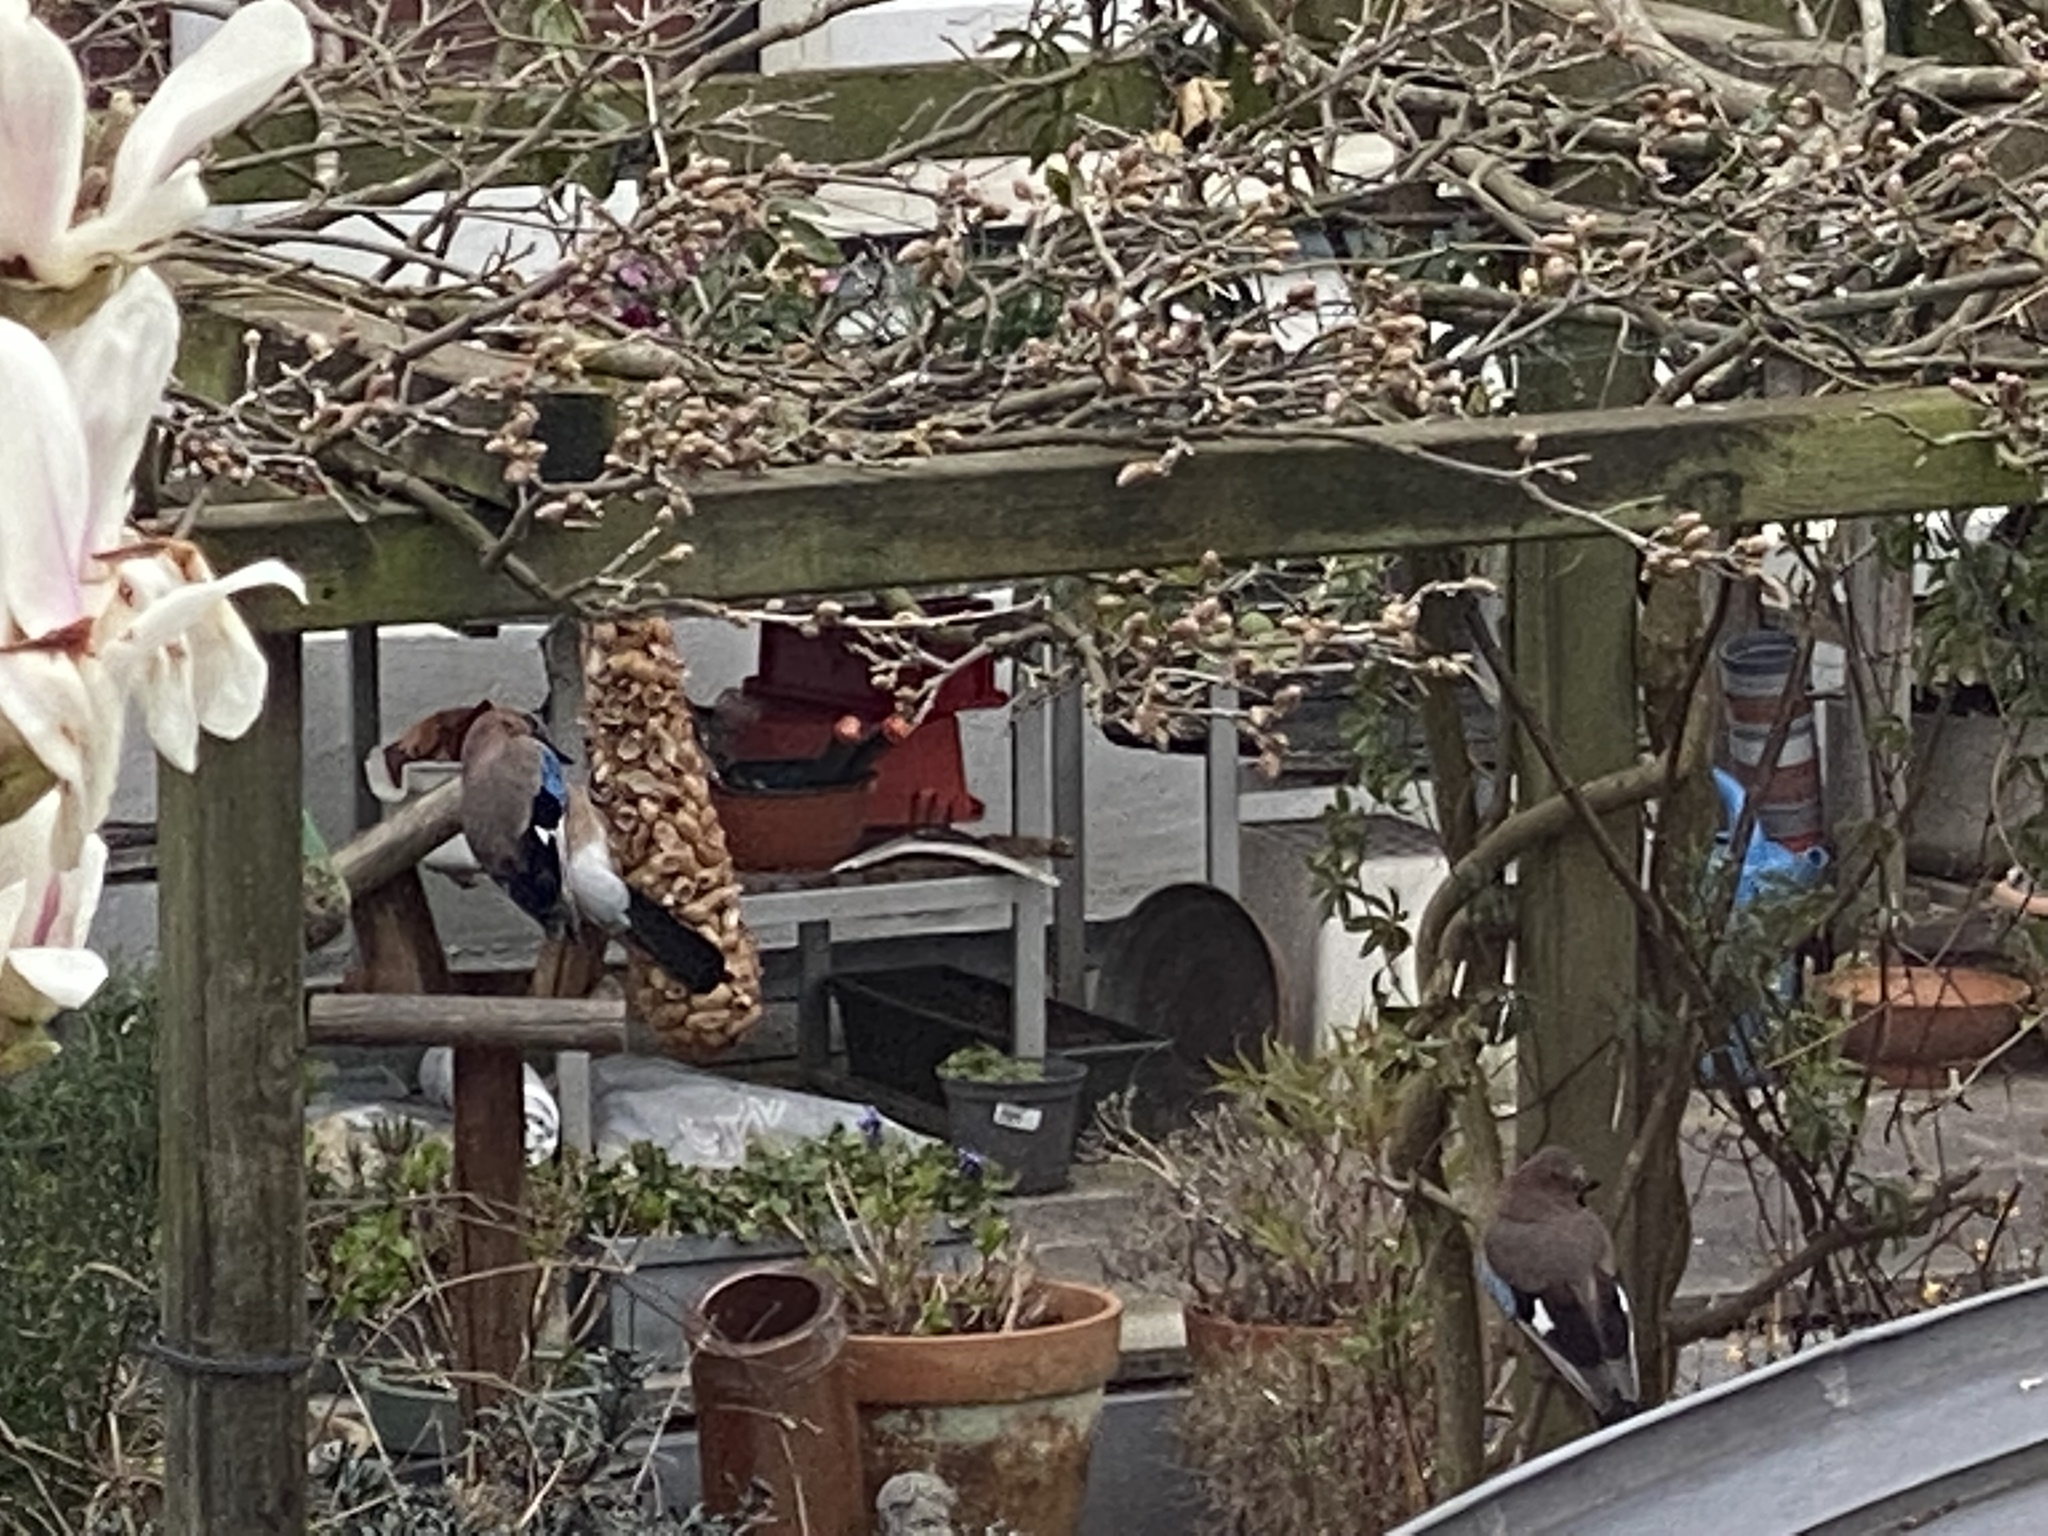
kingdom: Animalia
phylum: Chordata
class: Aves
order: Passeriformes
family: Corvidae
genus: Garrulus
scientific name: Garrulus glandarius
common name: Eurasian jay
